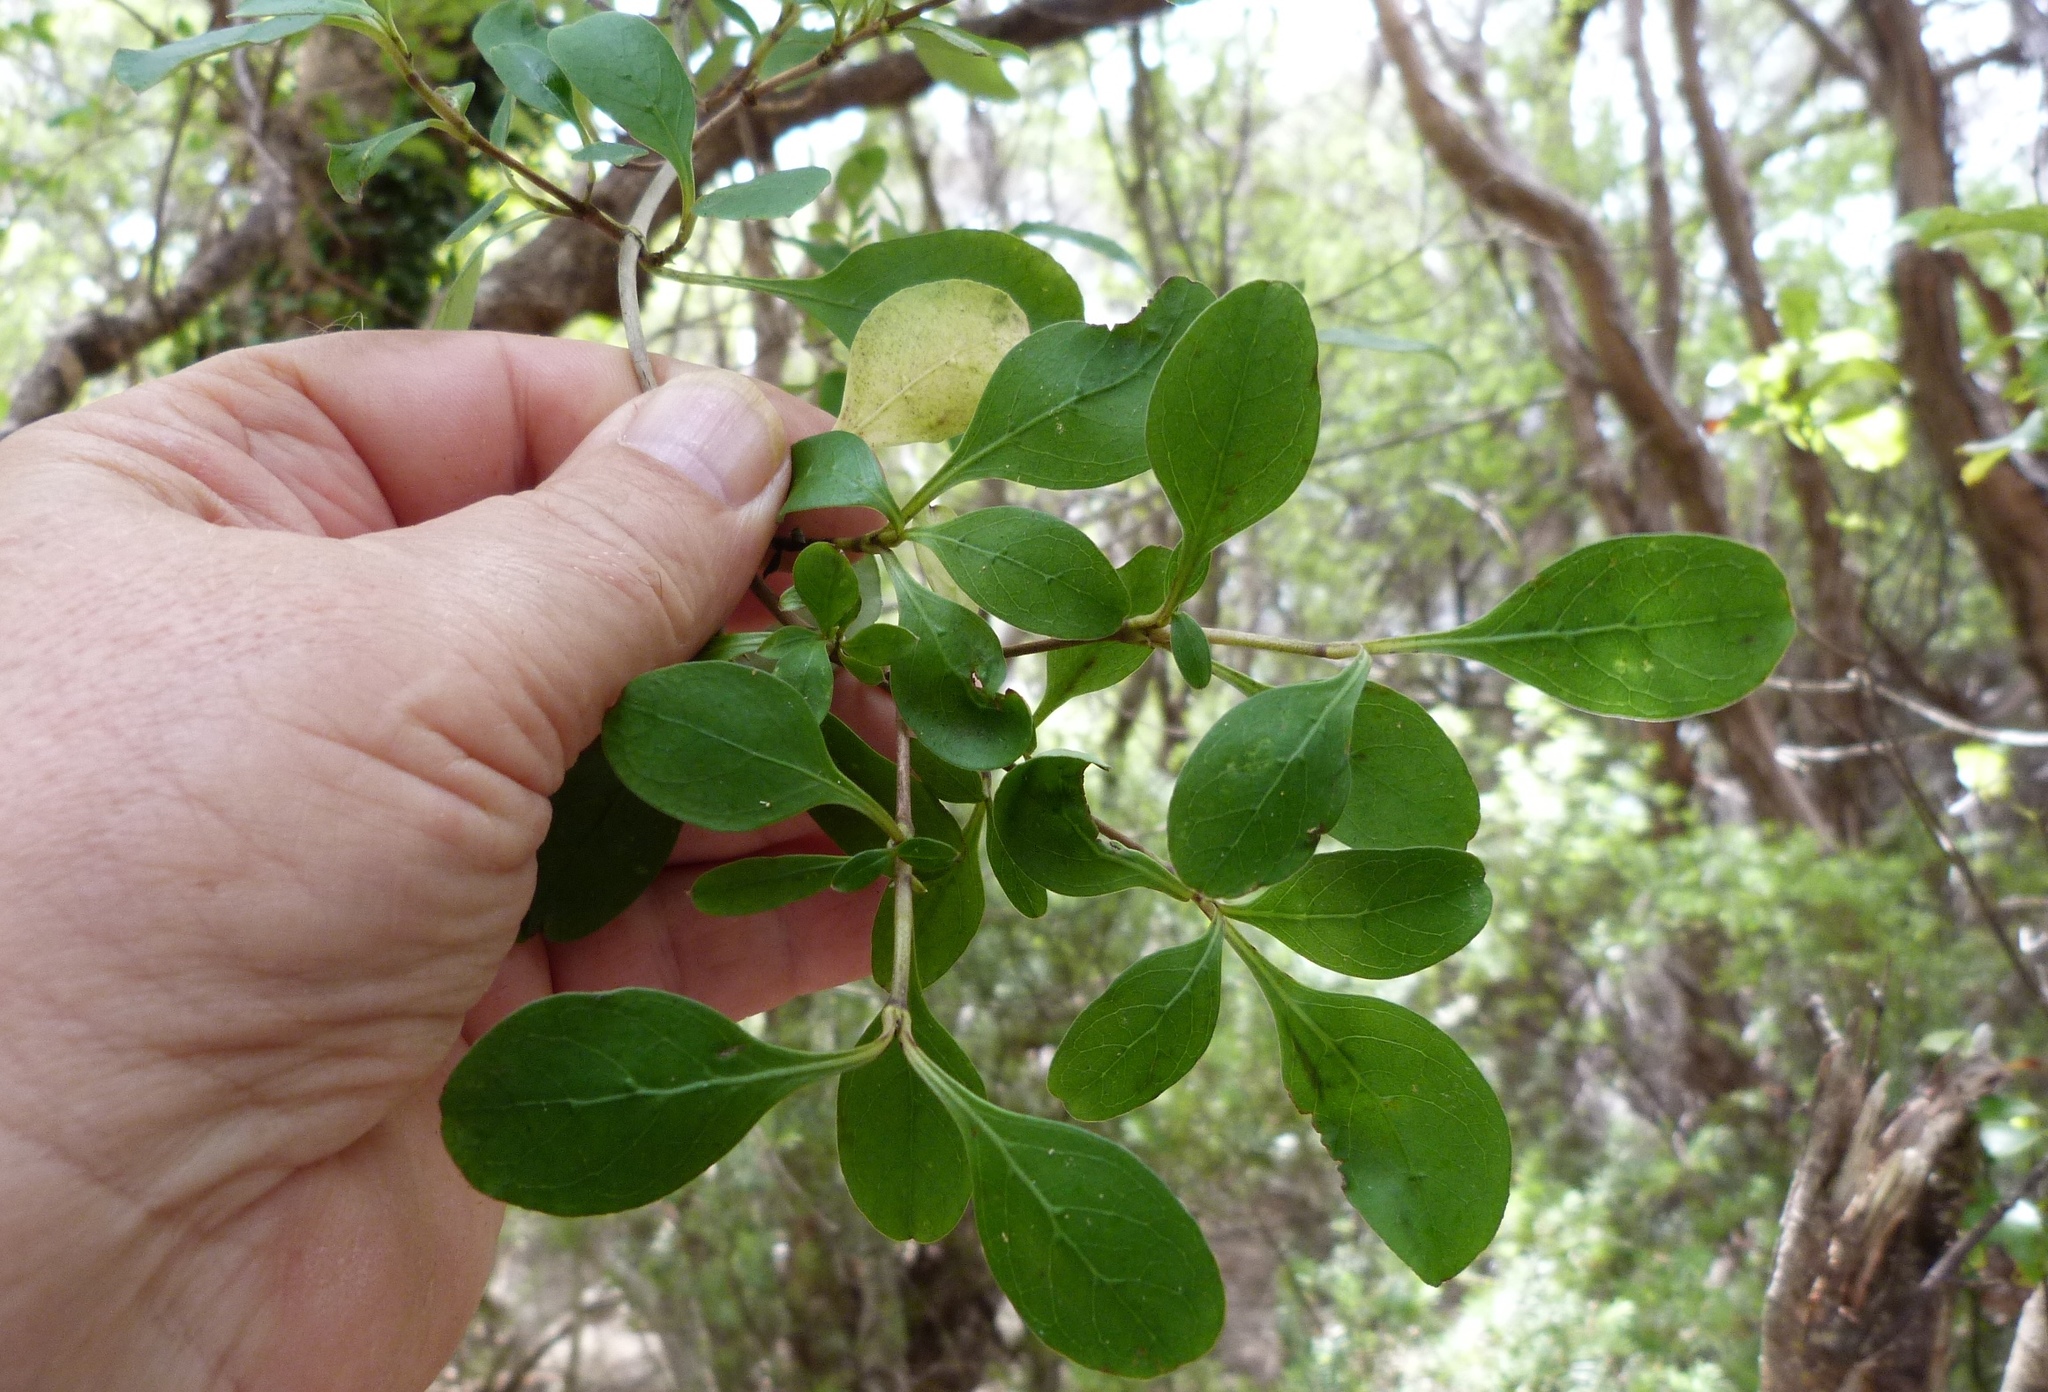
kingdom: Plantae
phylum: Tracheophyta
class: Magnoliopsida
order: Gentianales
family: Rubiaceae
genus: Coprosma
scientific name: Coprosma foetidissima
